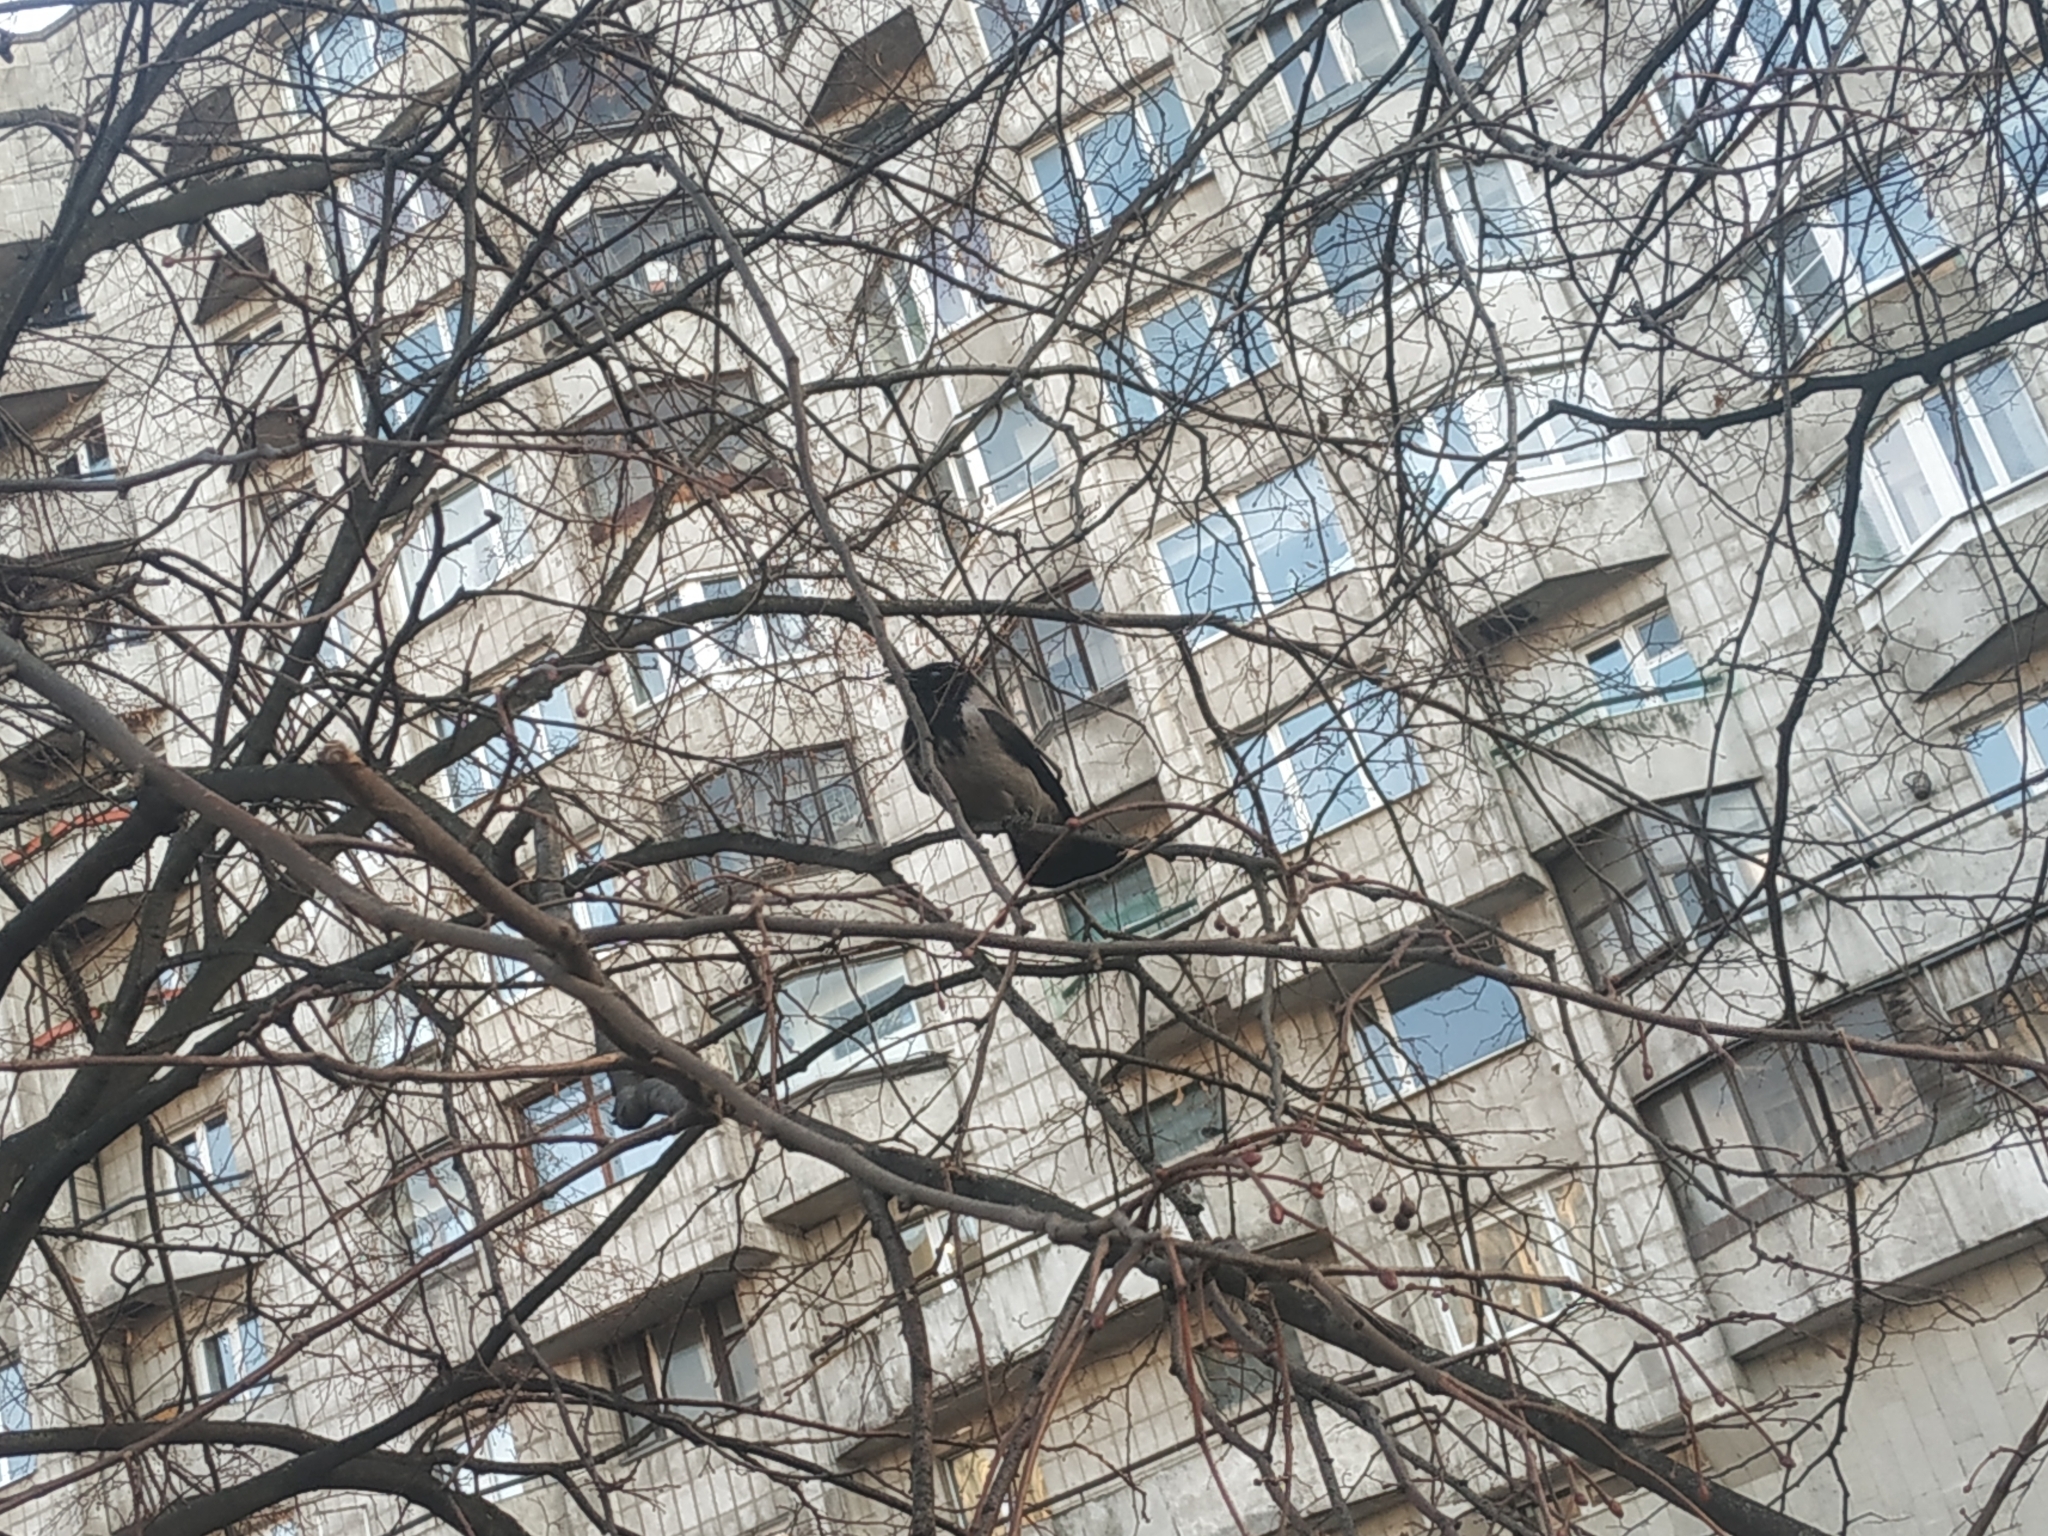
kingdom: Animalia
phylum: Chordata
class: Aves
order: Passeriformes
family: Corvidae
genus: Corvus
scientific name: Corvus cornix
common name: Hooded crow
